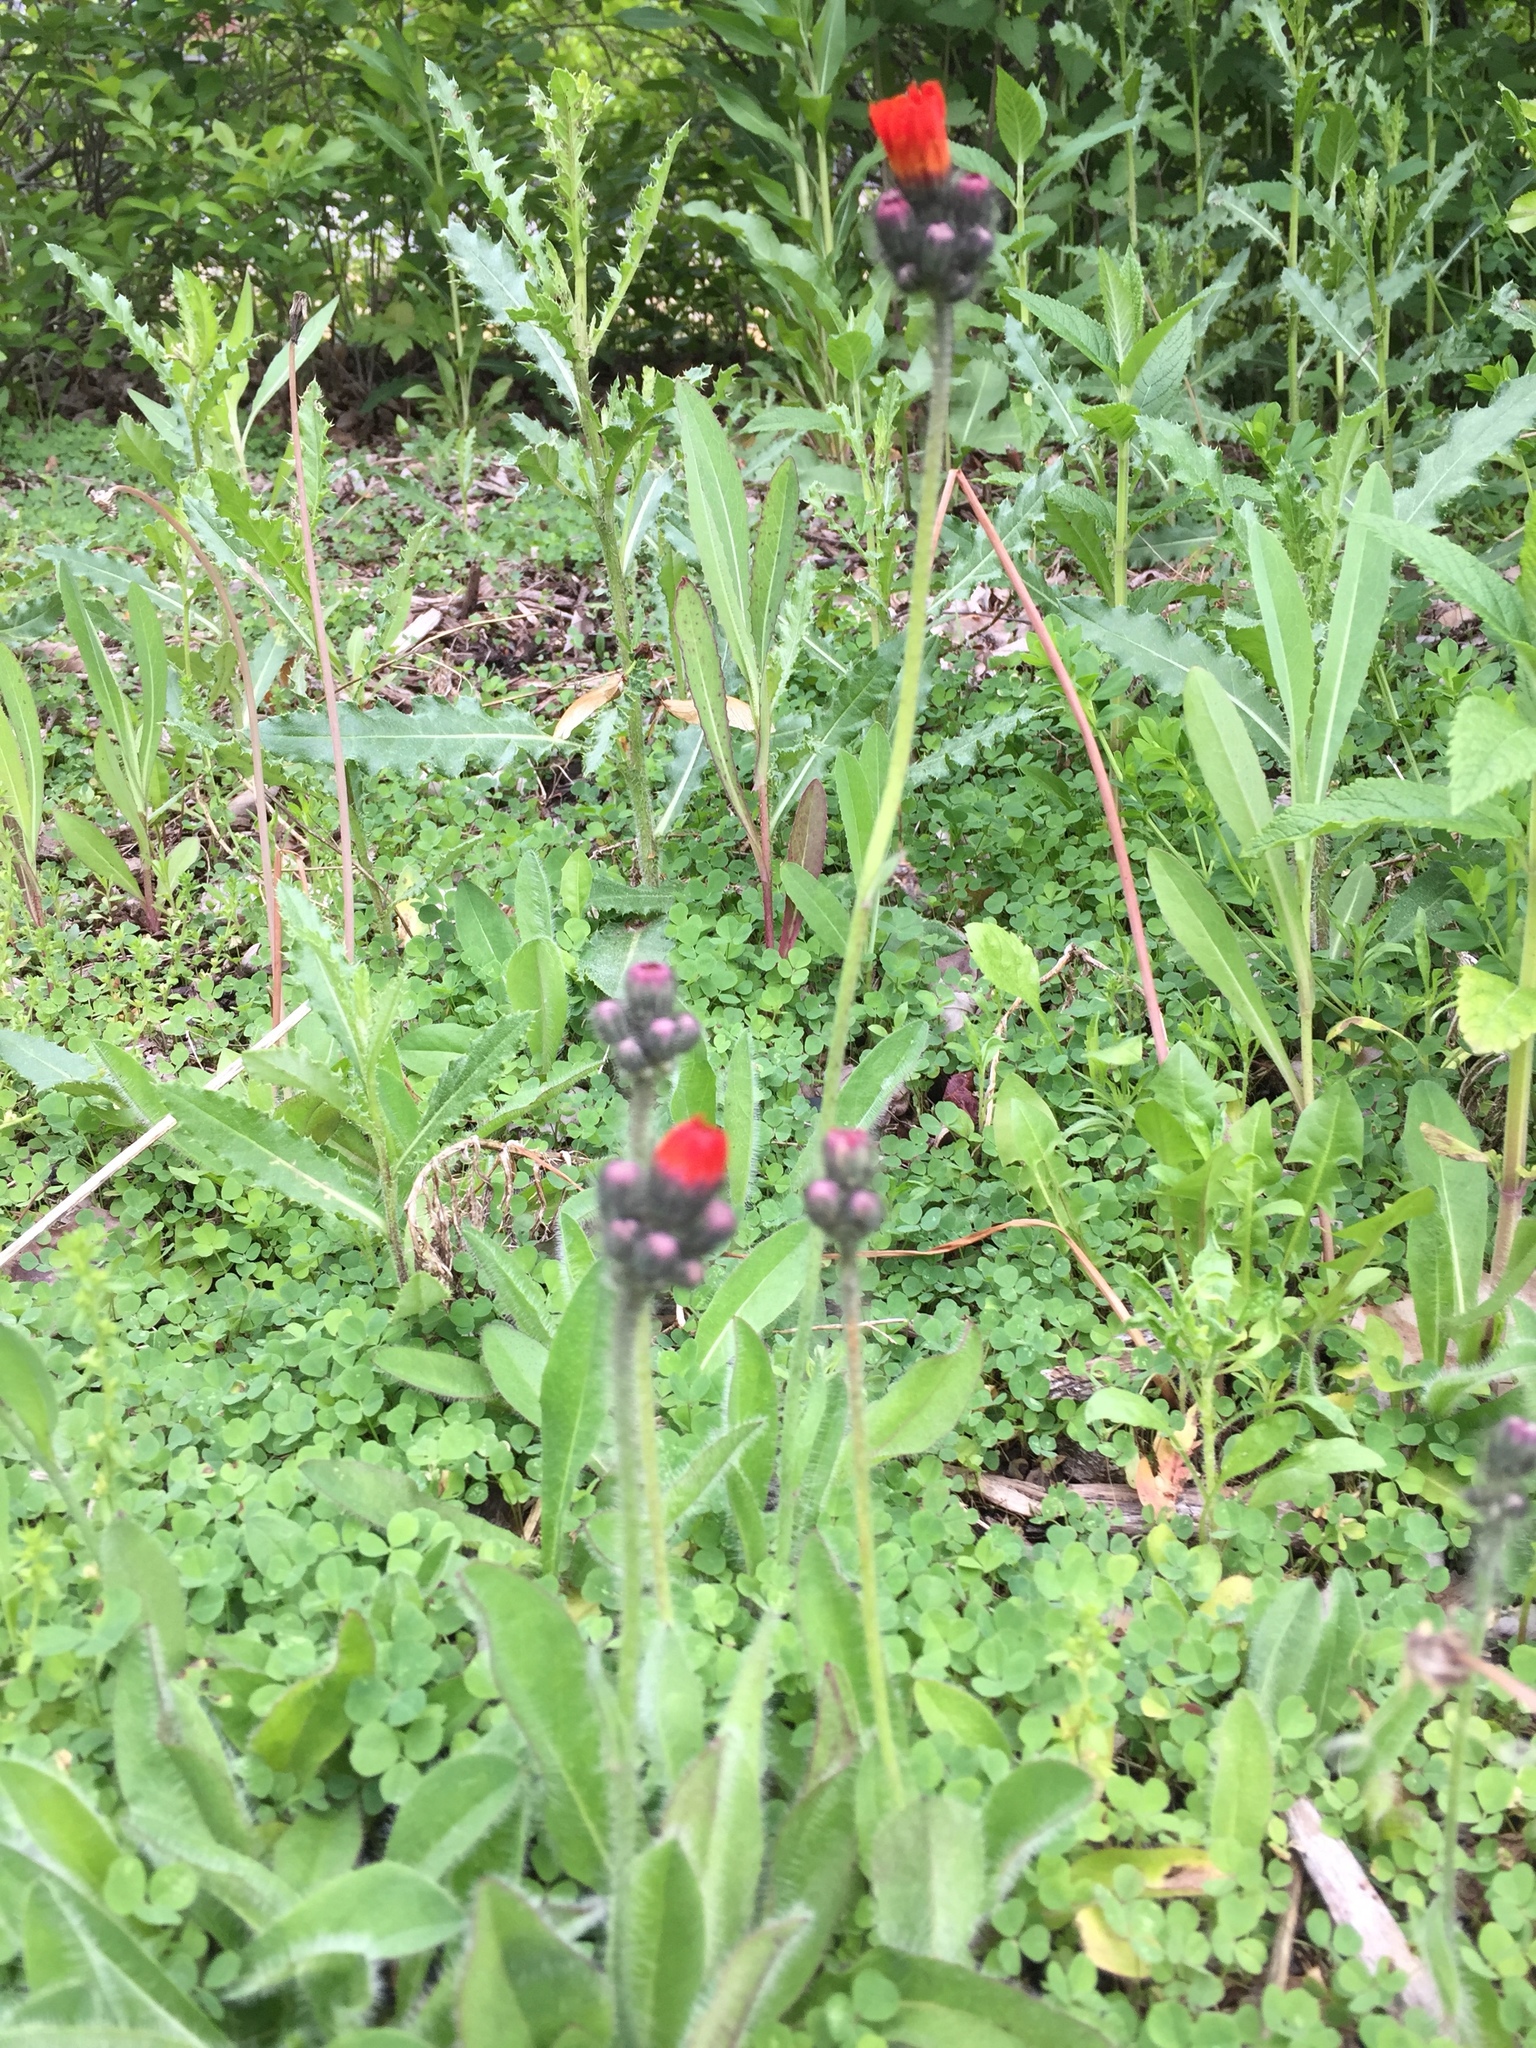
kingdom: Plantae
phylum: Tracheophyta
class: Magnoliopsida
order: Asterales
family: Asteraceae
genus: Pilosella
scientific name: Pilosella aurantiaca
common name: Fox-and-cubs
